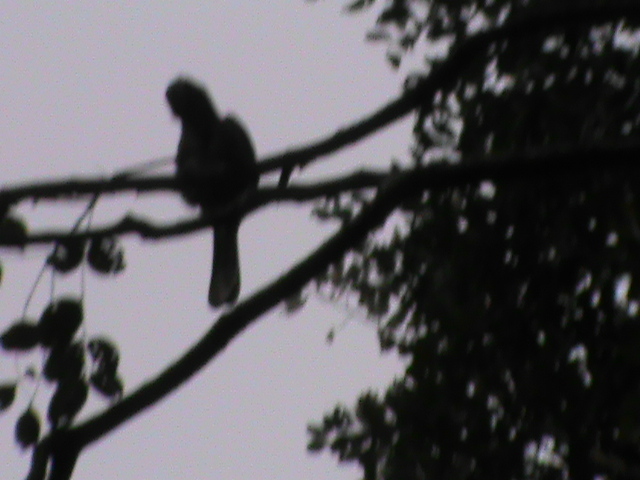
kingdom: Animalia
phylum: Chordata
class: Aves
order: Bucerotiformes
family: Bucerotidae
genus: Ocyceros
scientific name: Ocyceros griseus
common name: Malabar grey hornbill
